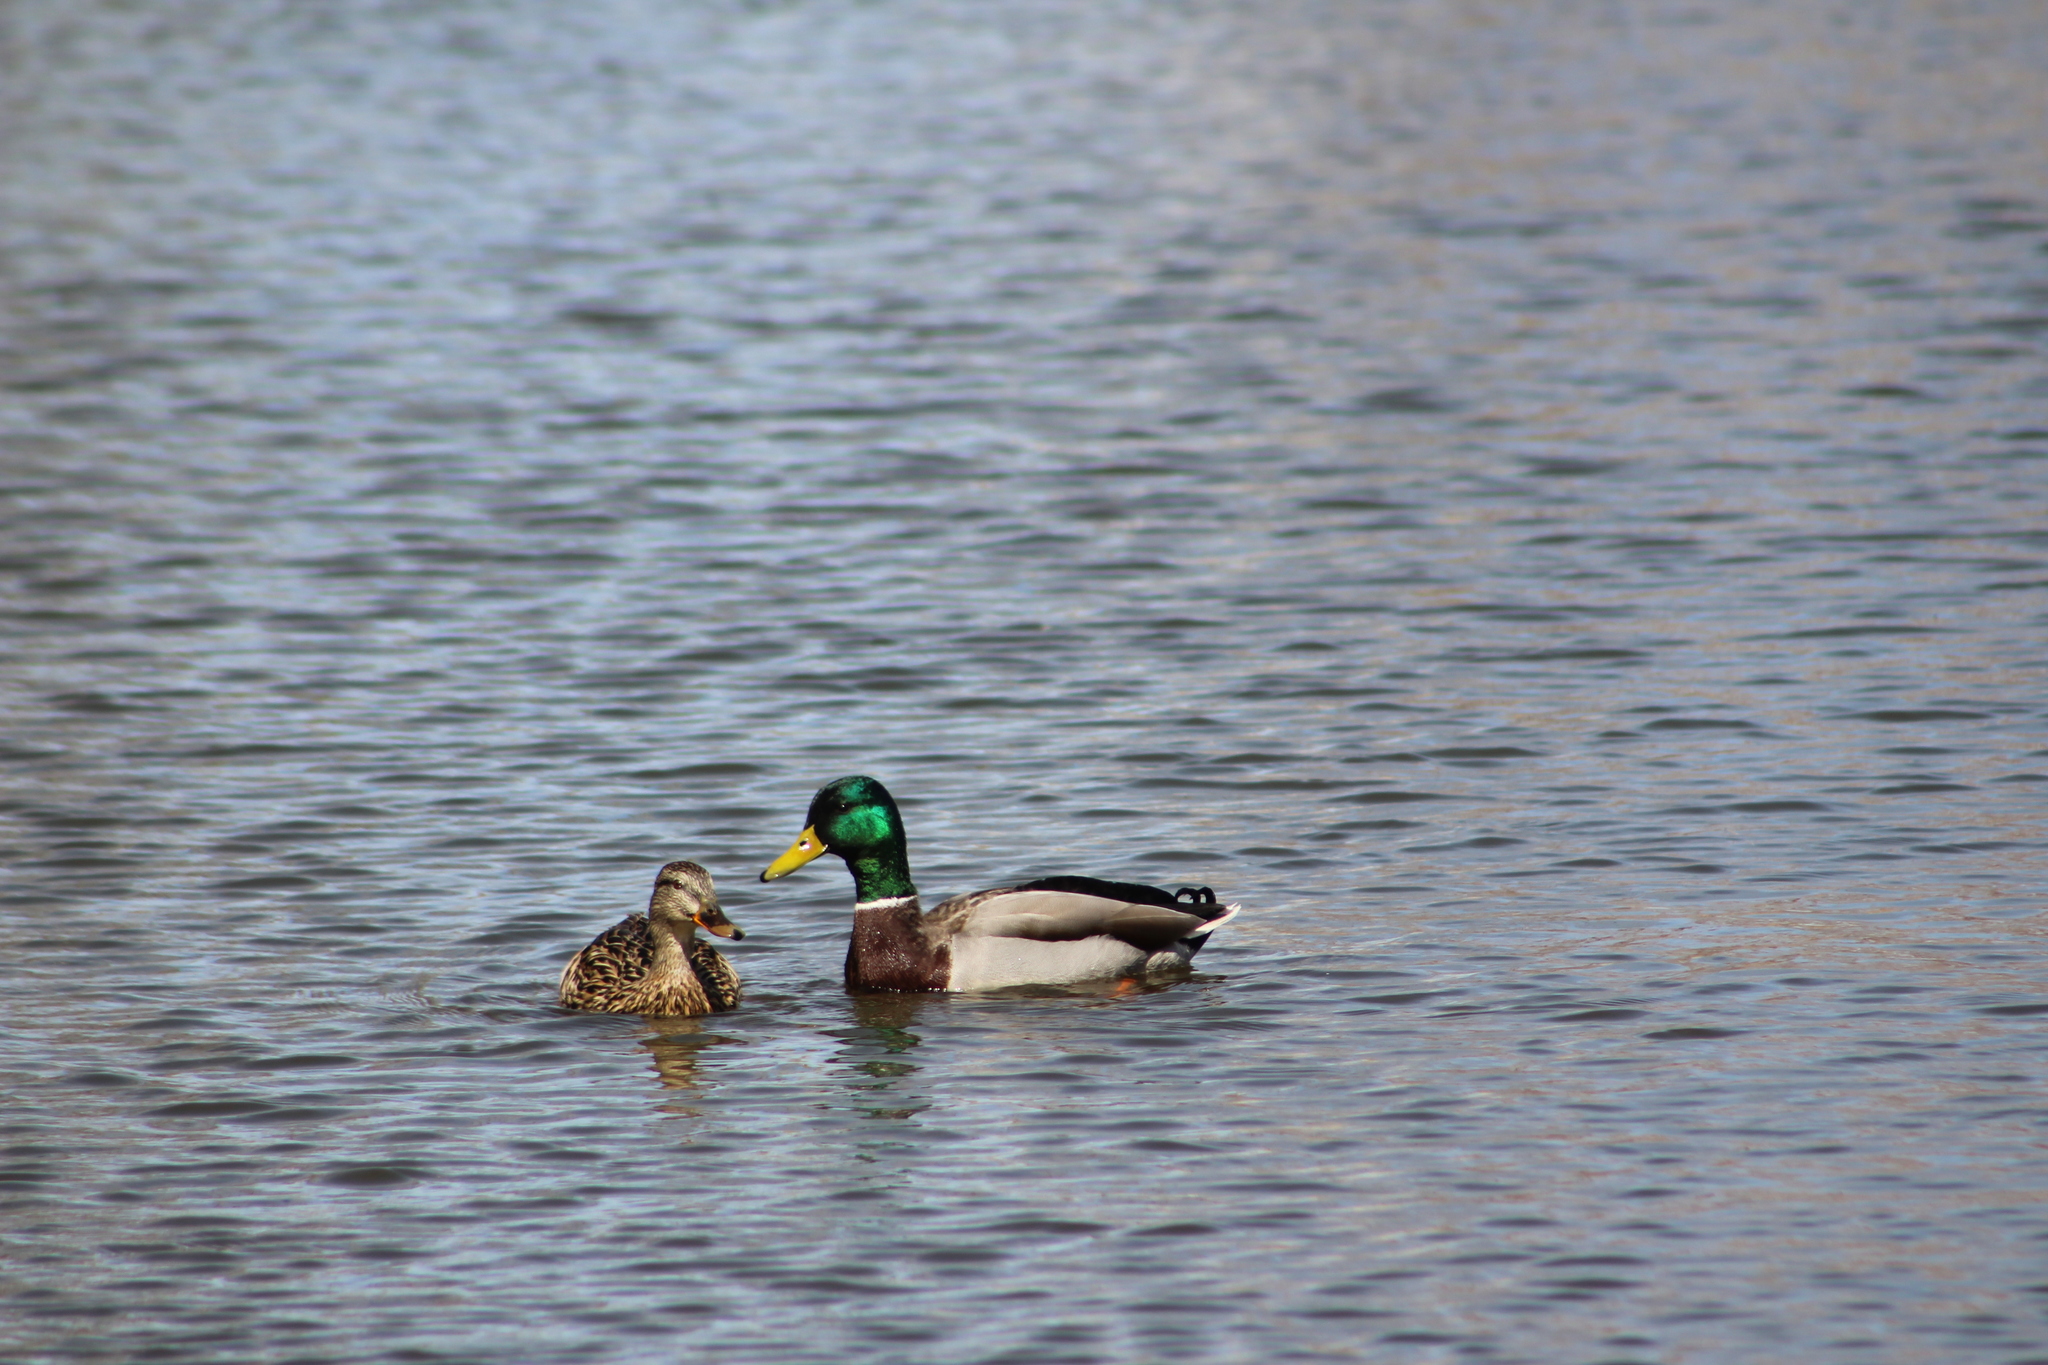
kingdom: Animalia
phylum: Chordata
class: Aves
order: Anseriformes
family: Anatidae
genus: Anas
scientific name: Anas platyrhynchos
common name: Mallard
